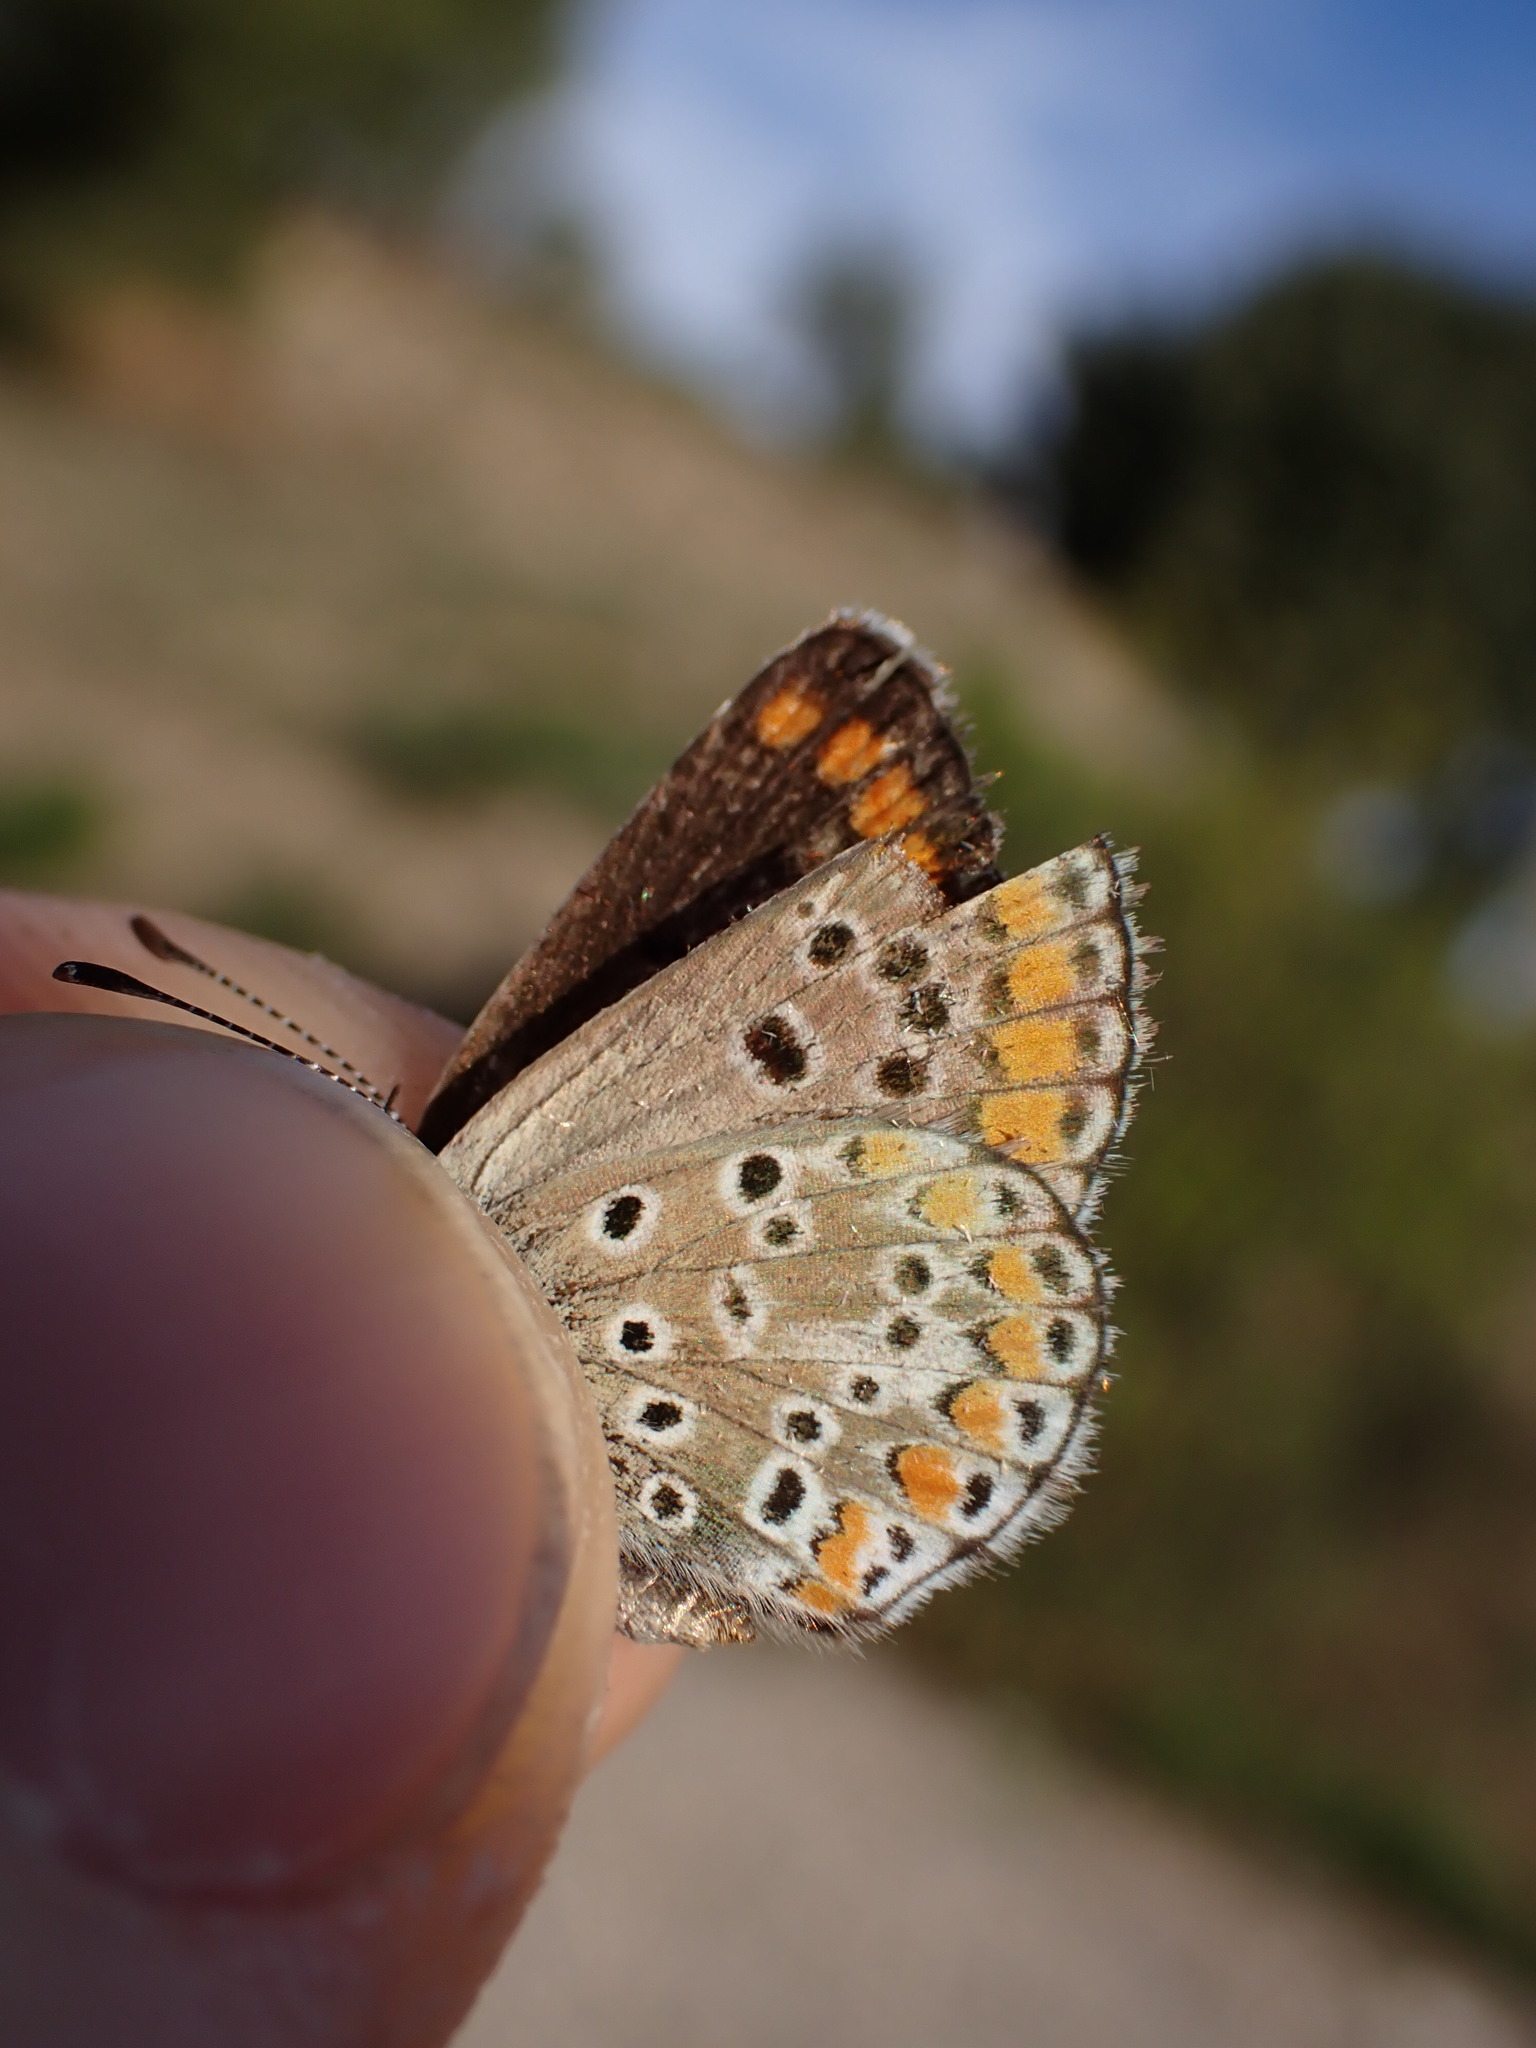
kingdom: Animalia
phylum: Arthropoda
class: Insecta
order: Lepidoptera
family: Lycaenidae
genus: Aricia
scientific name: Aricia agestis
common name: Brown argus
